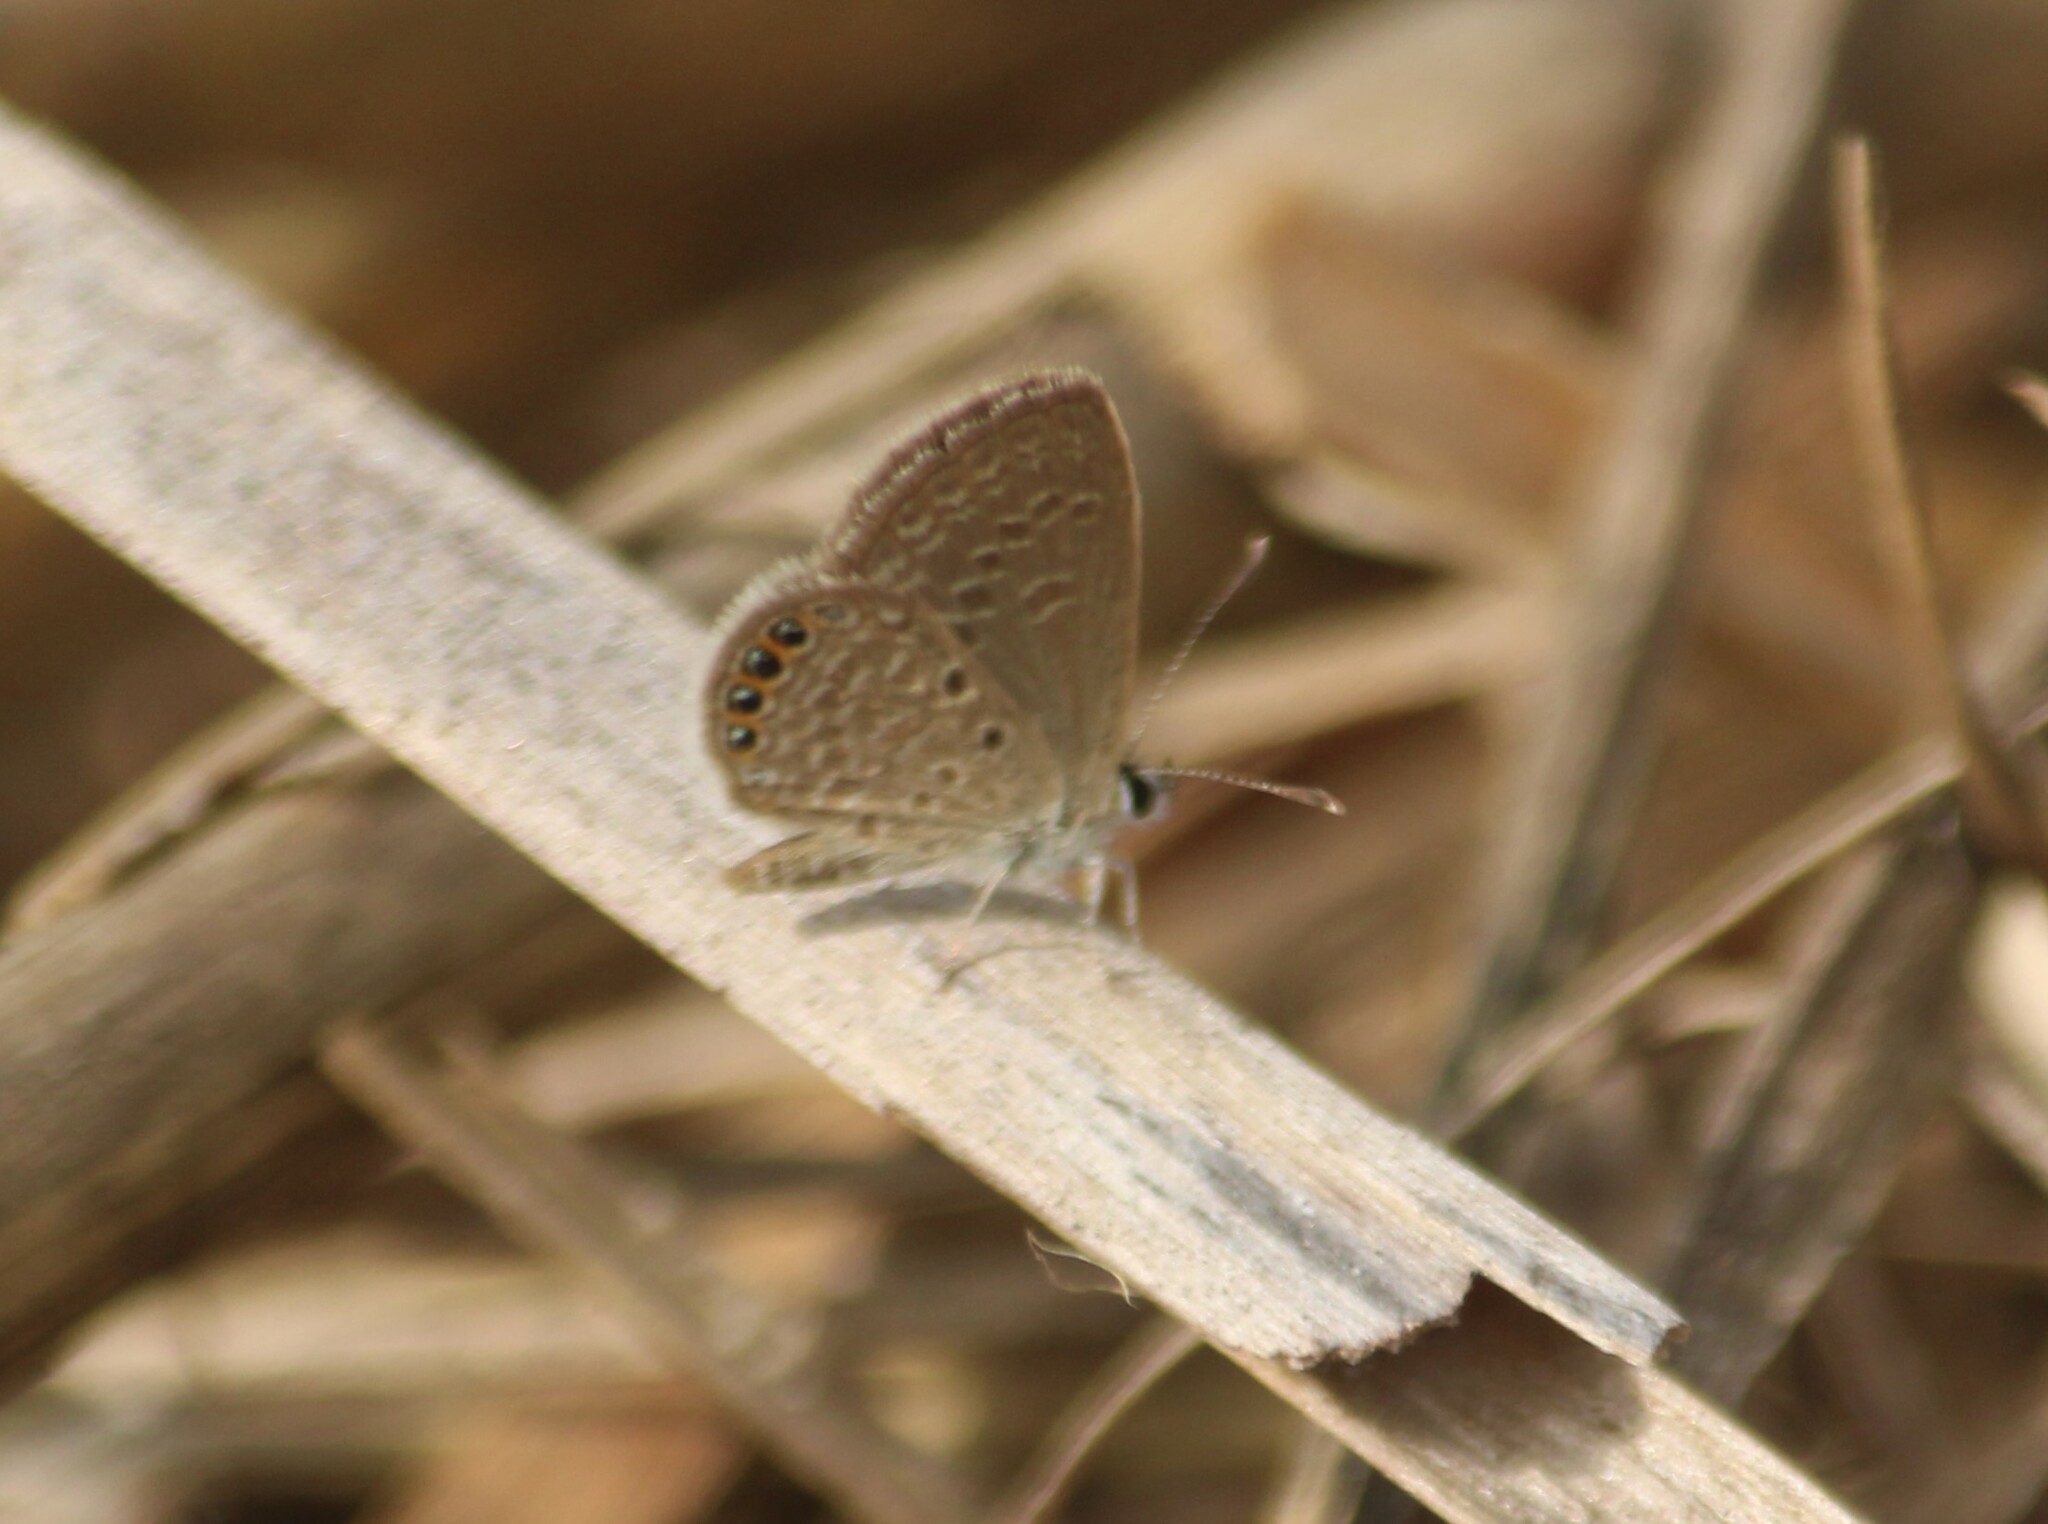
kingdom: Animalia
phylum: Arthropoda
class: Insecta
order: Lepidoptera
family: Lycaenidae
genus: Freyeria
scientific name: Freyeria putli
